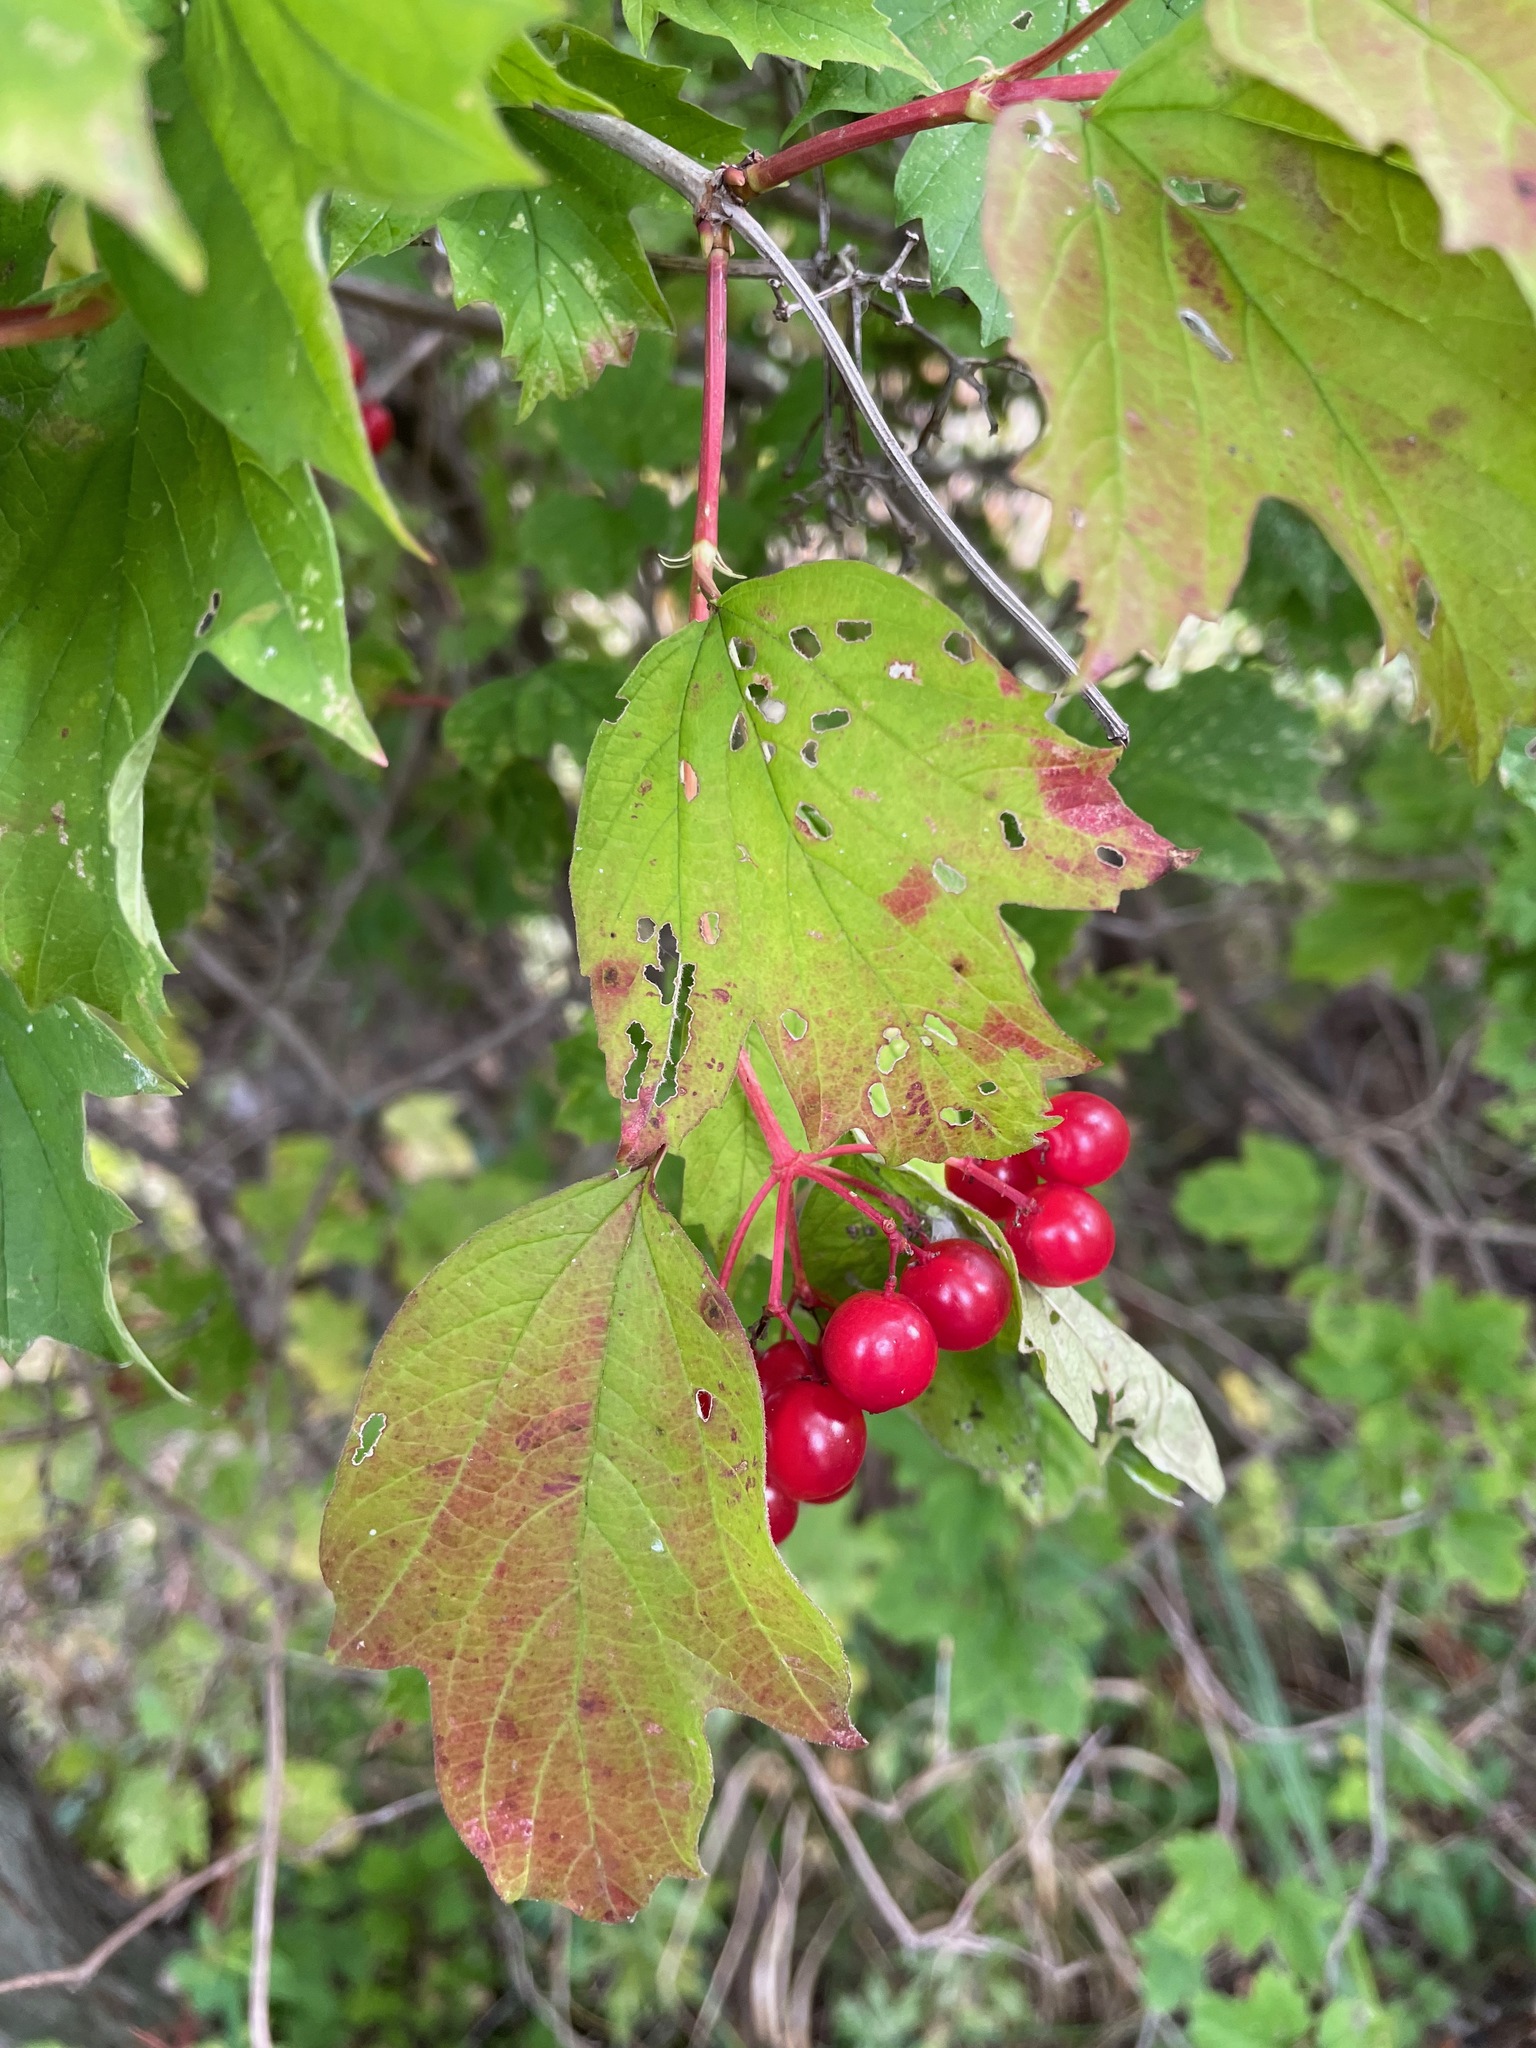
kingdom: Plantae
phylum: Tracheophyta
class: Magnoliopsida
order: Dipsacales
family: Viburnaceae
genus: Viburnum
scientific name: Viburnum opulus
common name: Guelder-rose
